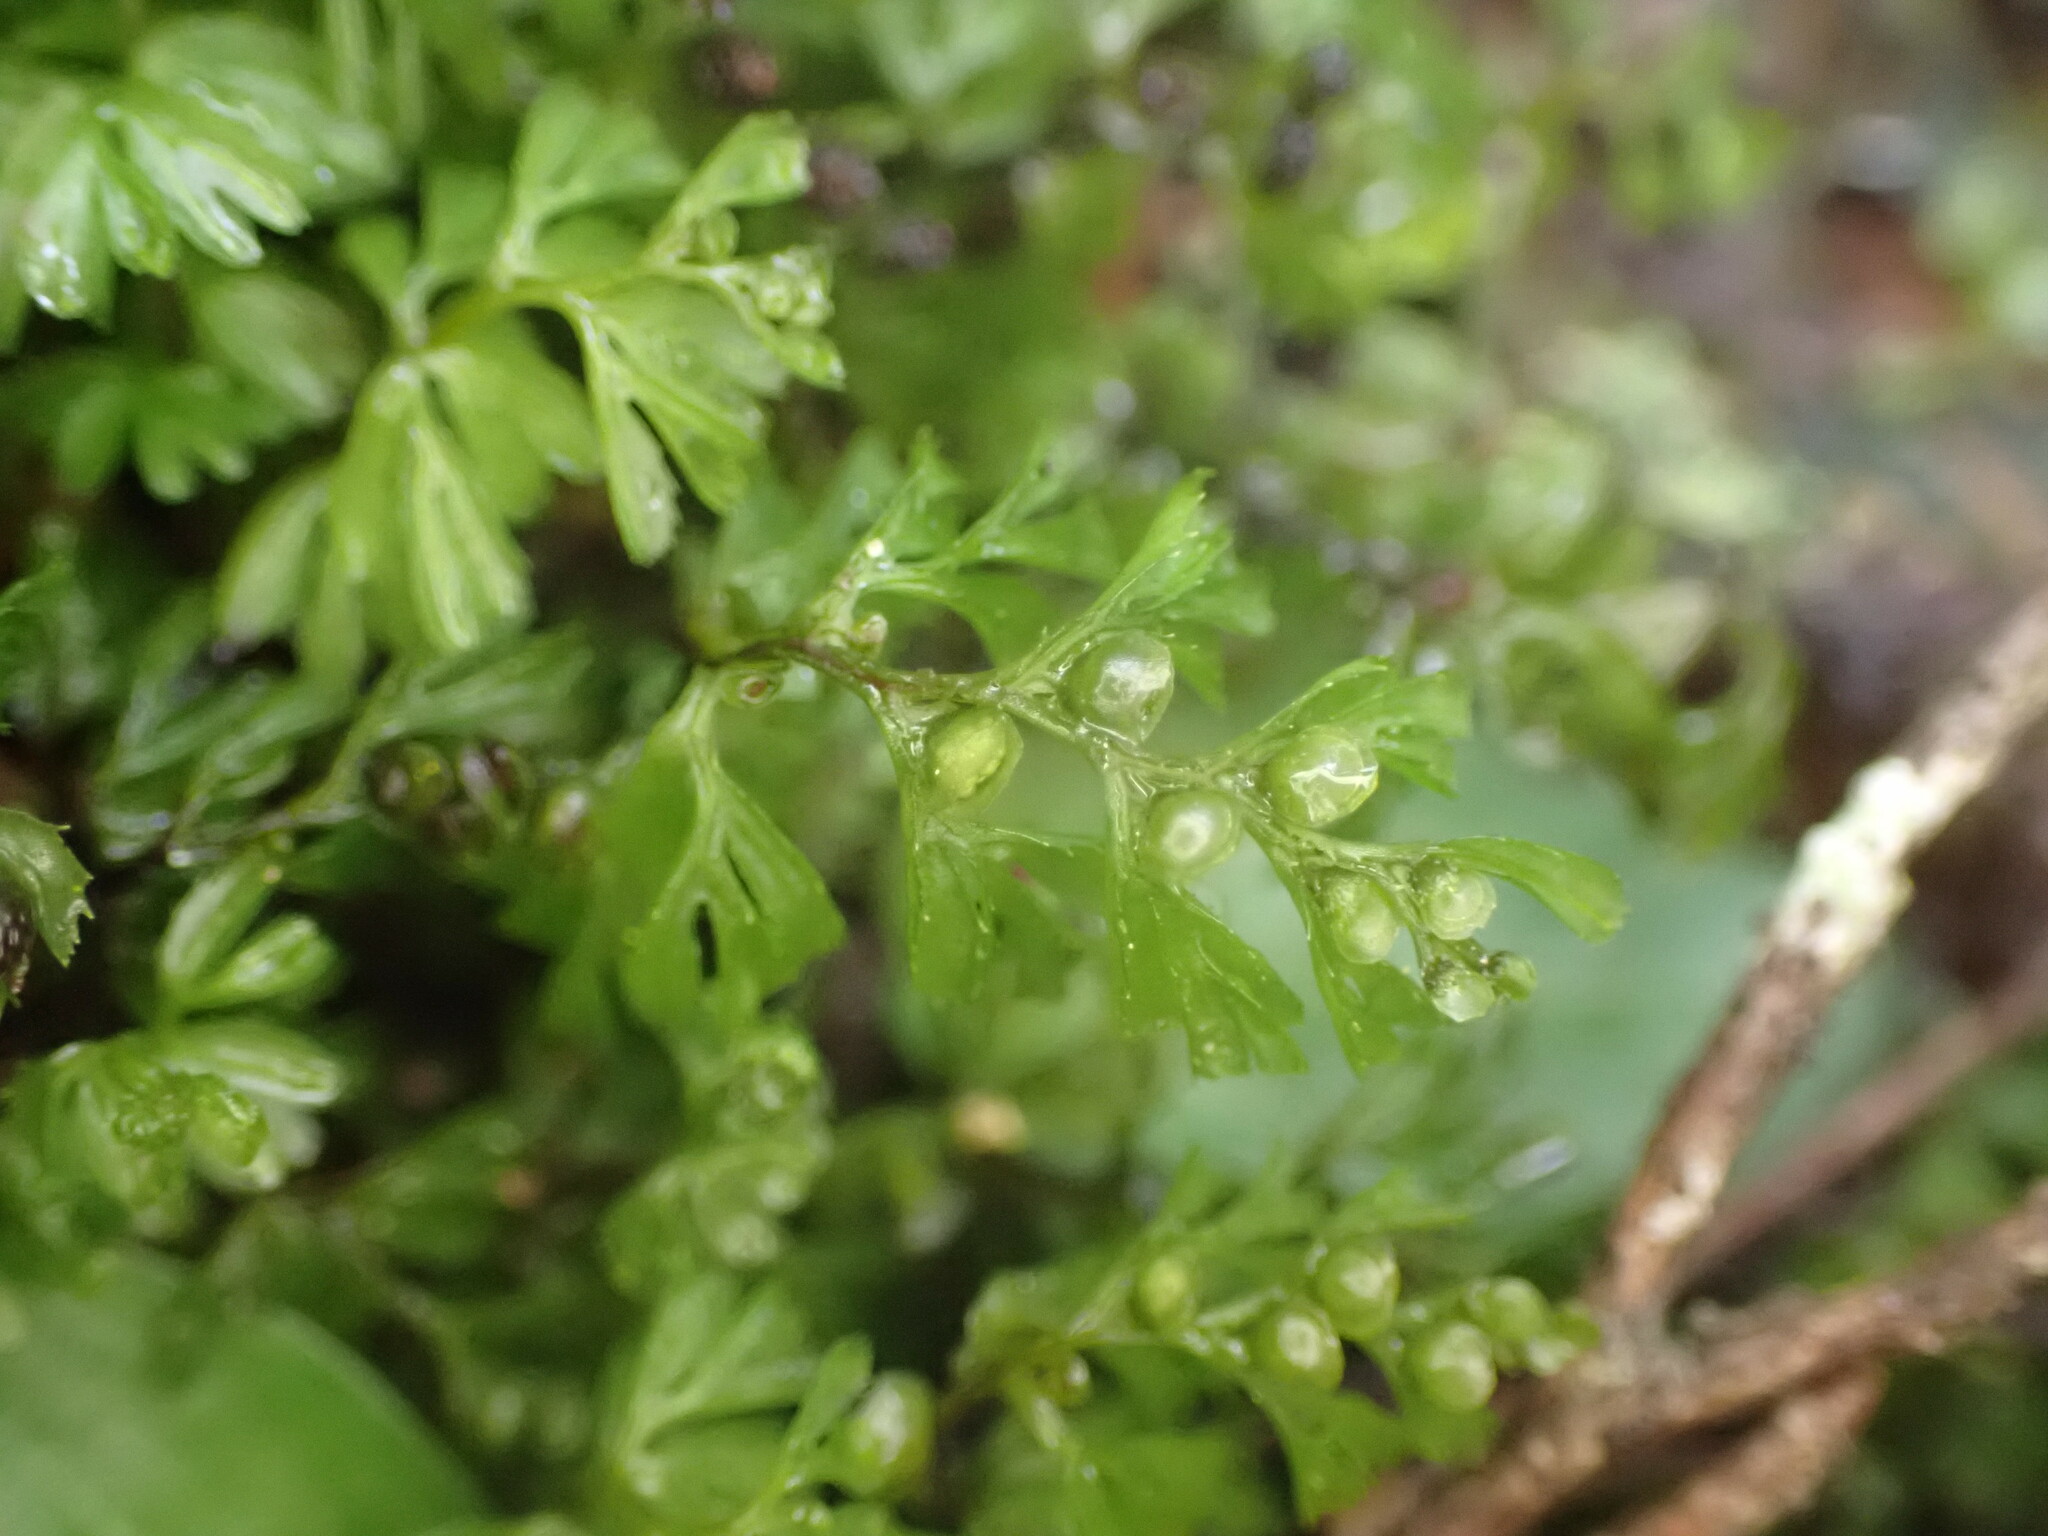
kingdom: Plantae
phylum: Tracheophyta
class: Polypodiopsida
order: Hymenophyllales
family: Hymenophyllaceae
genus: Hymenophyllum
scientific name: Hymenophyllum cupressiforme
